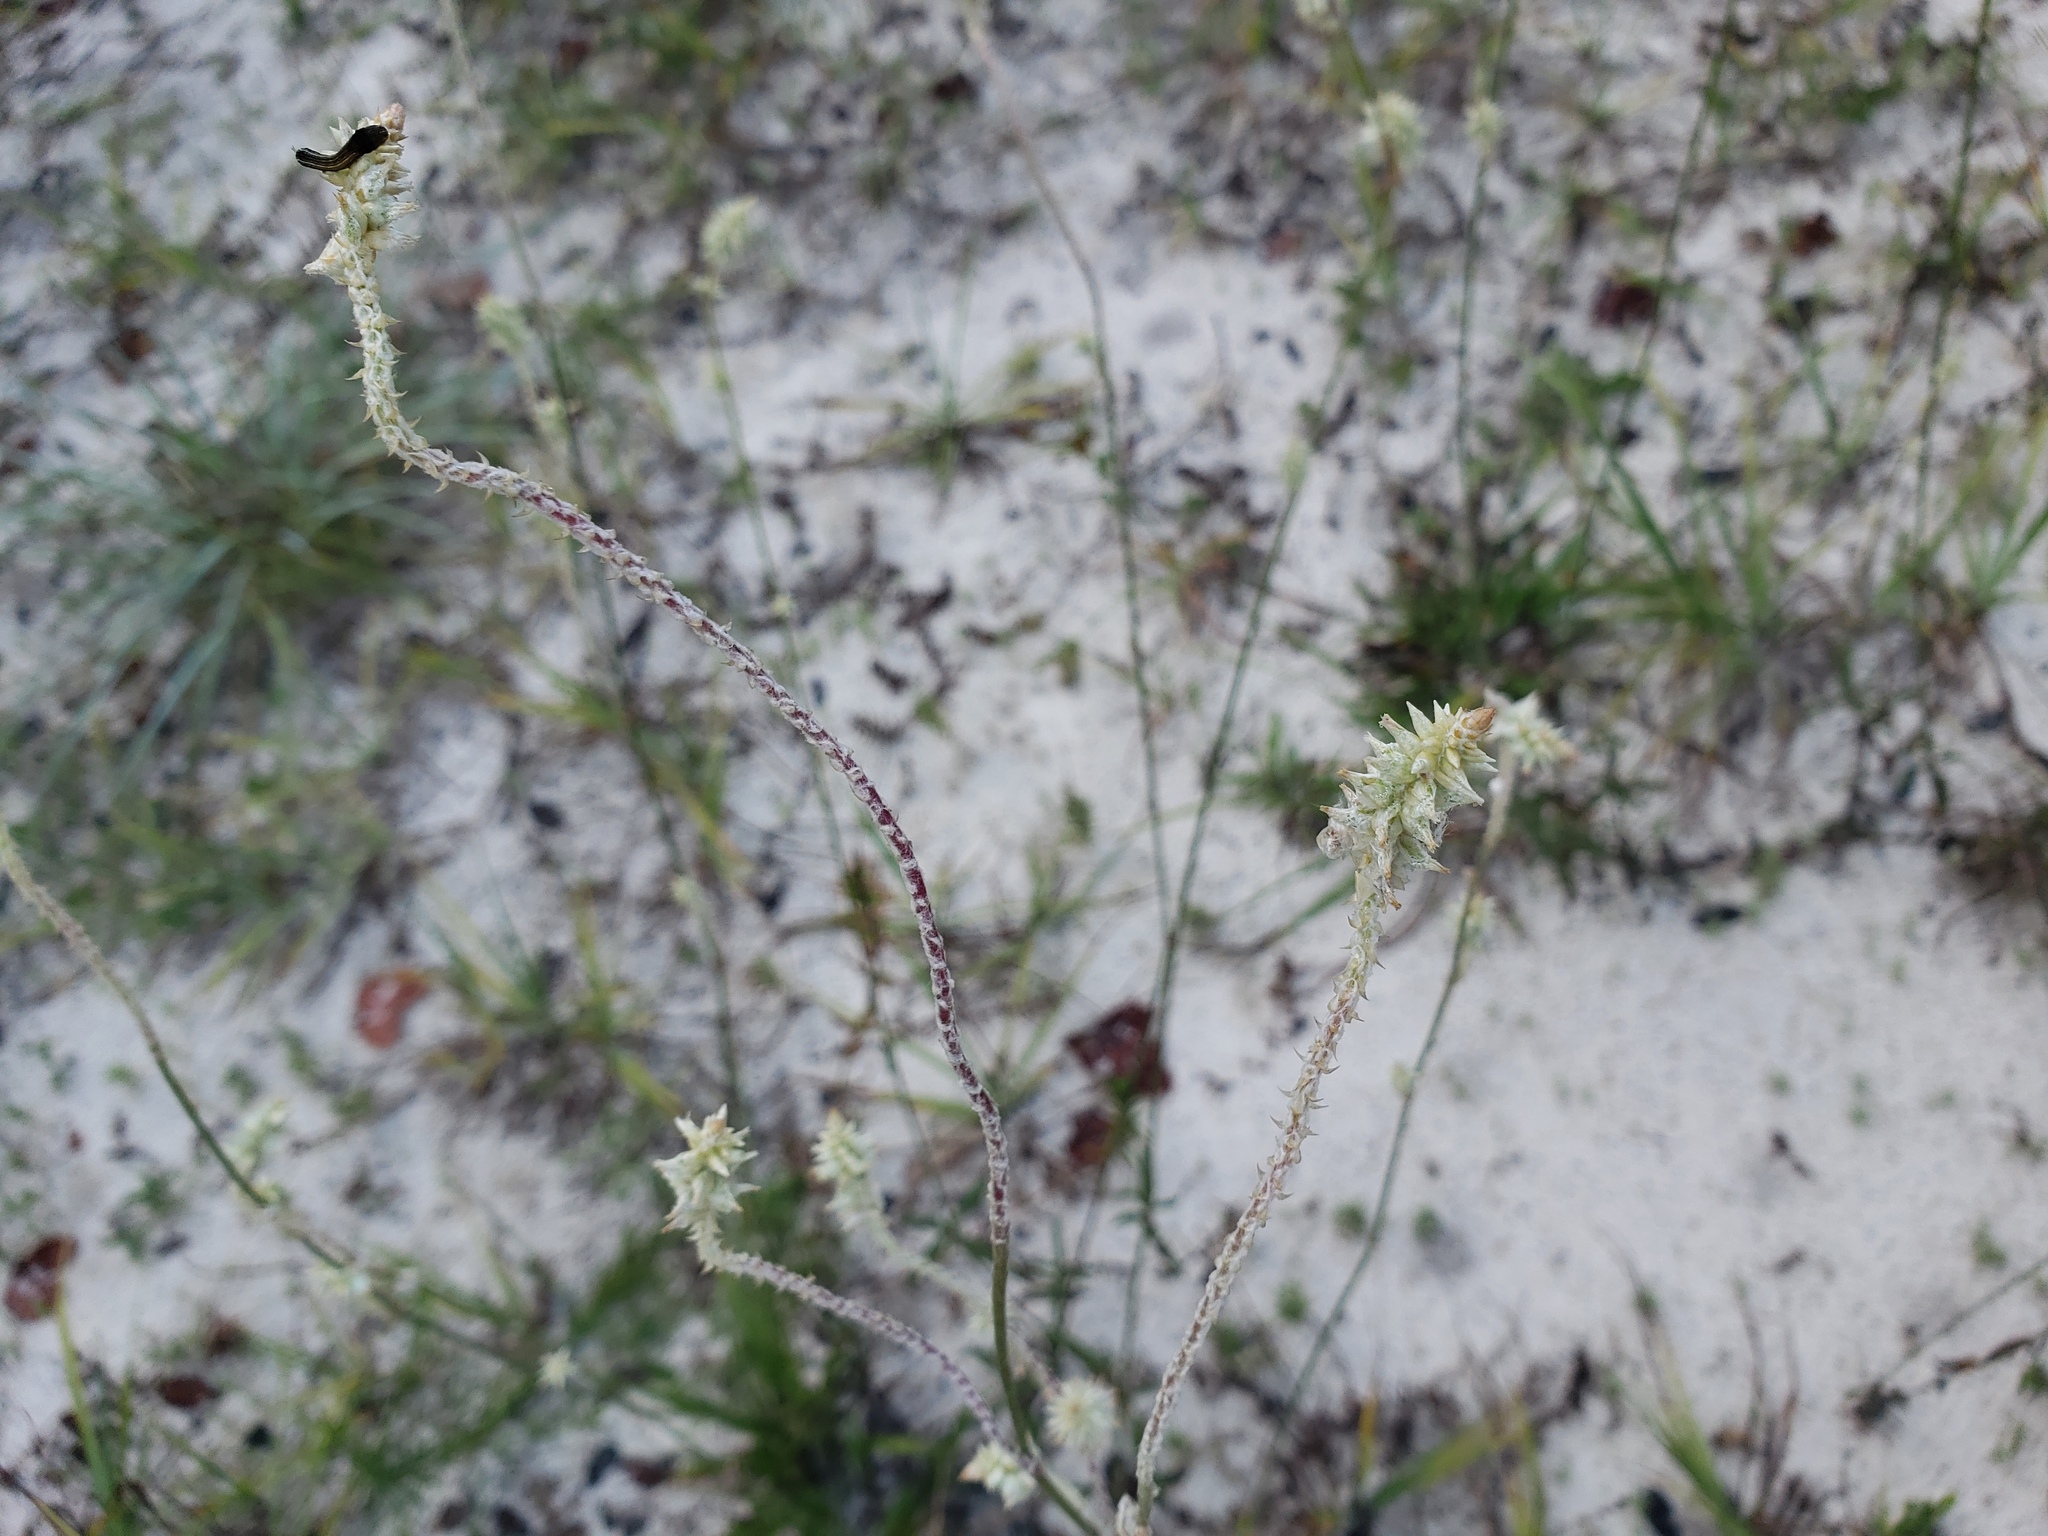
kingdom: Plantae
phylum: Tracheophyta
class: Magnoliopsida
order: Caryophyllales
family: Amaranthaceae
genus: Froelichia
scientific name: Froelichia floridana
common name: Florida snake-cotton
